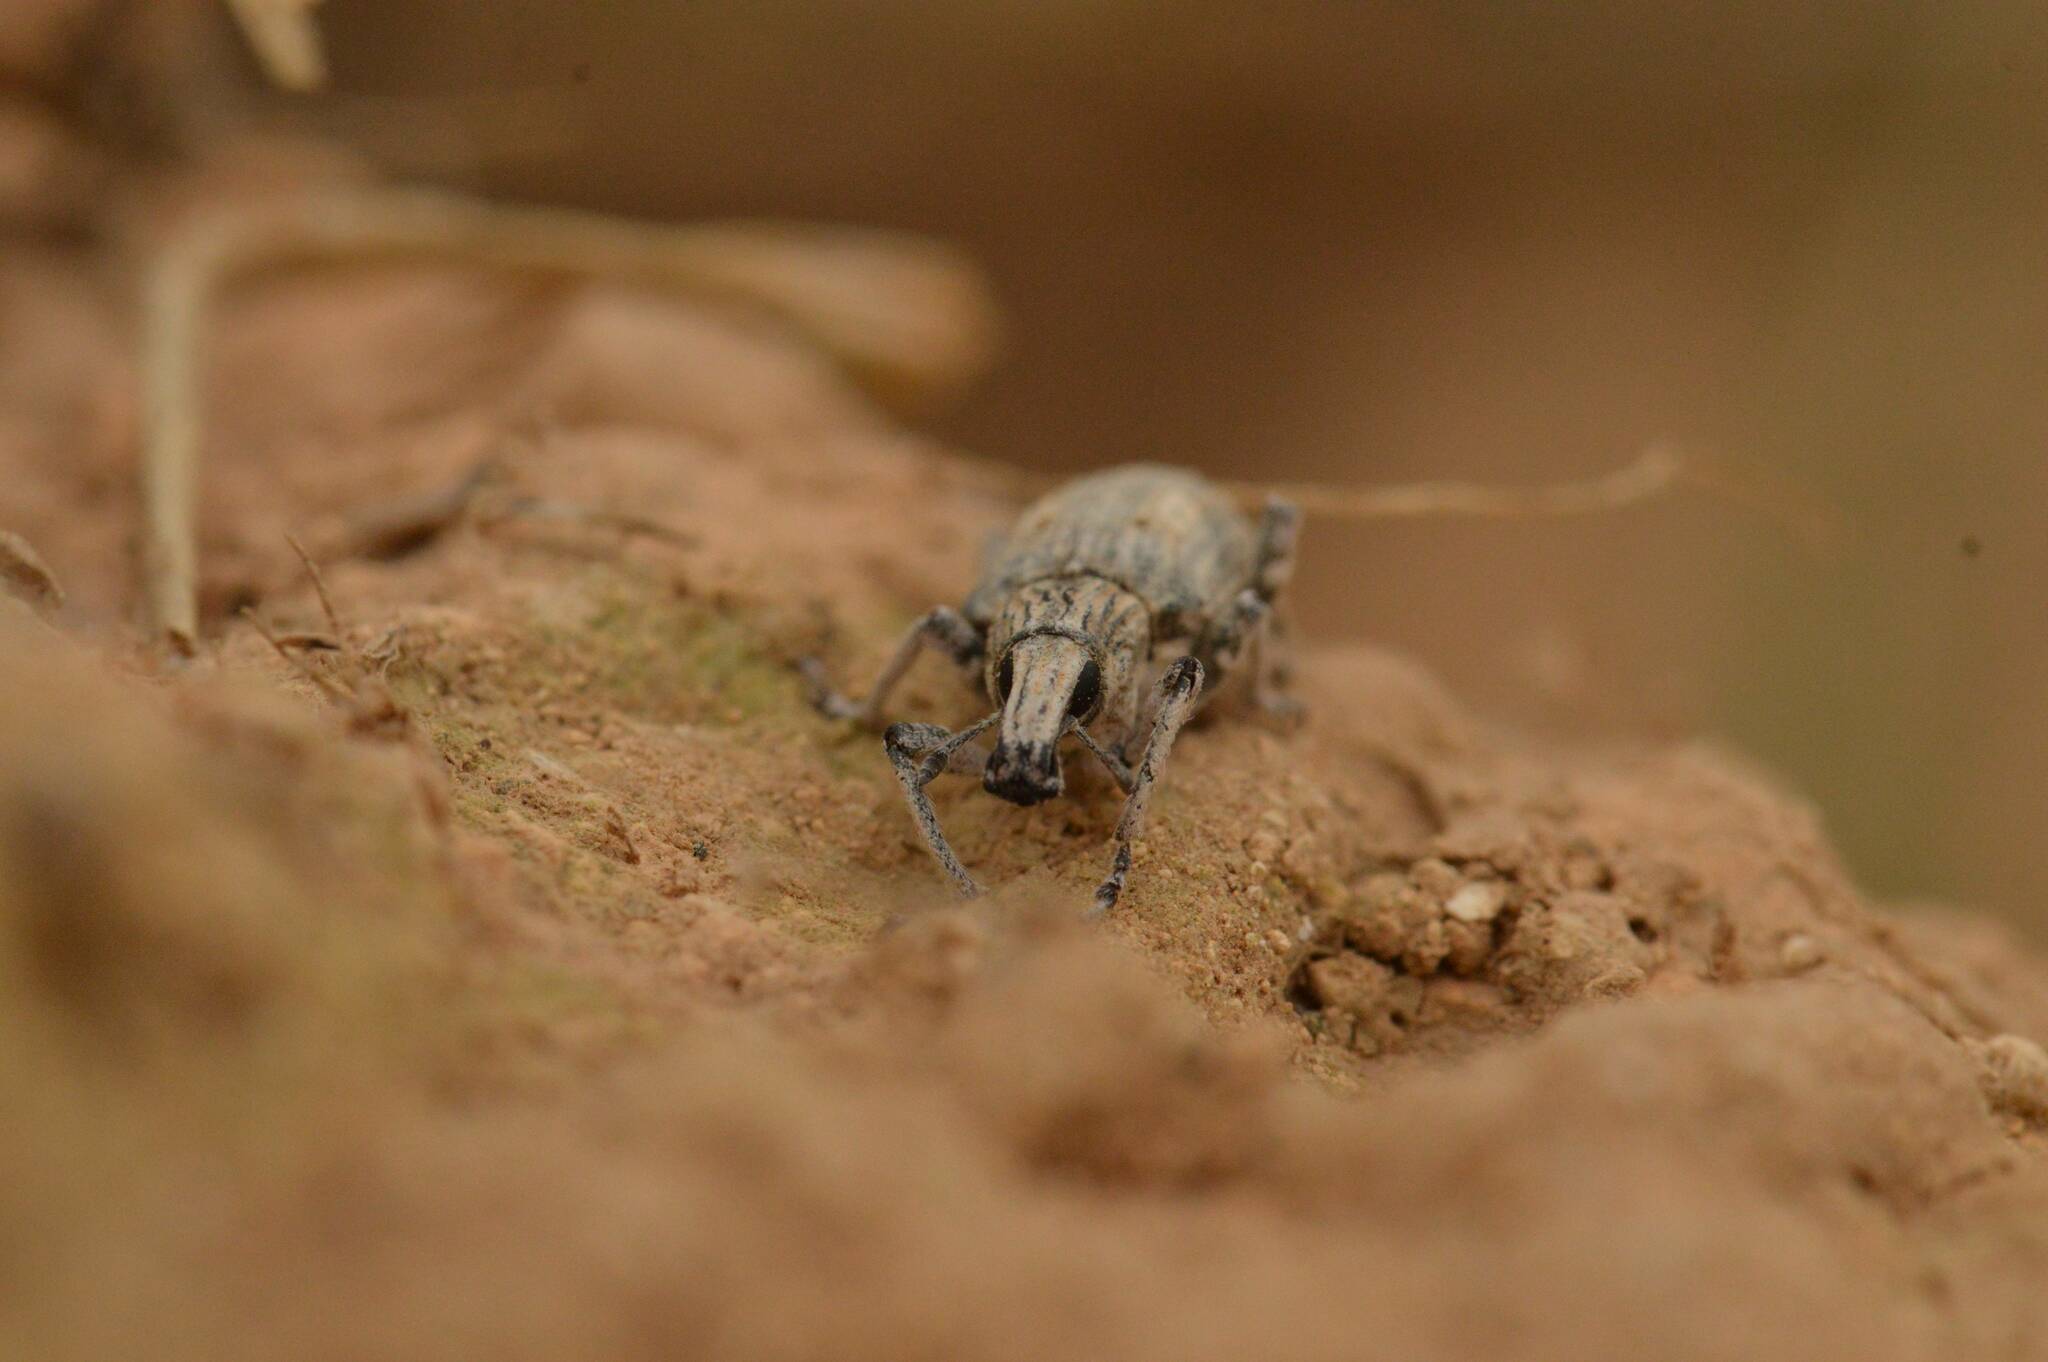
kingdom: Animalia
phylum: Arthropoda
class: Insecta
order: Coleoptera
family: Curculionidae
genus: Rhytideres
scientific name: Rhytideres plicatus
